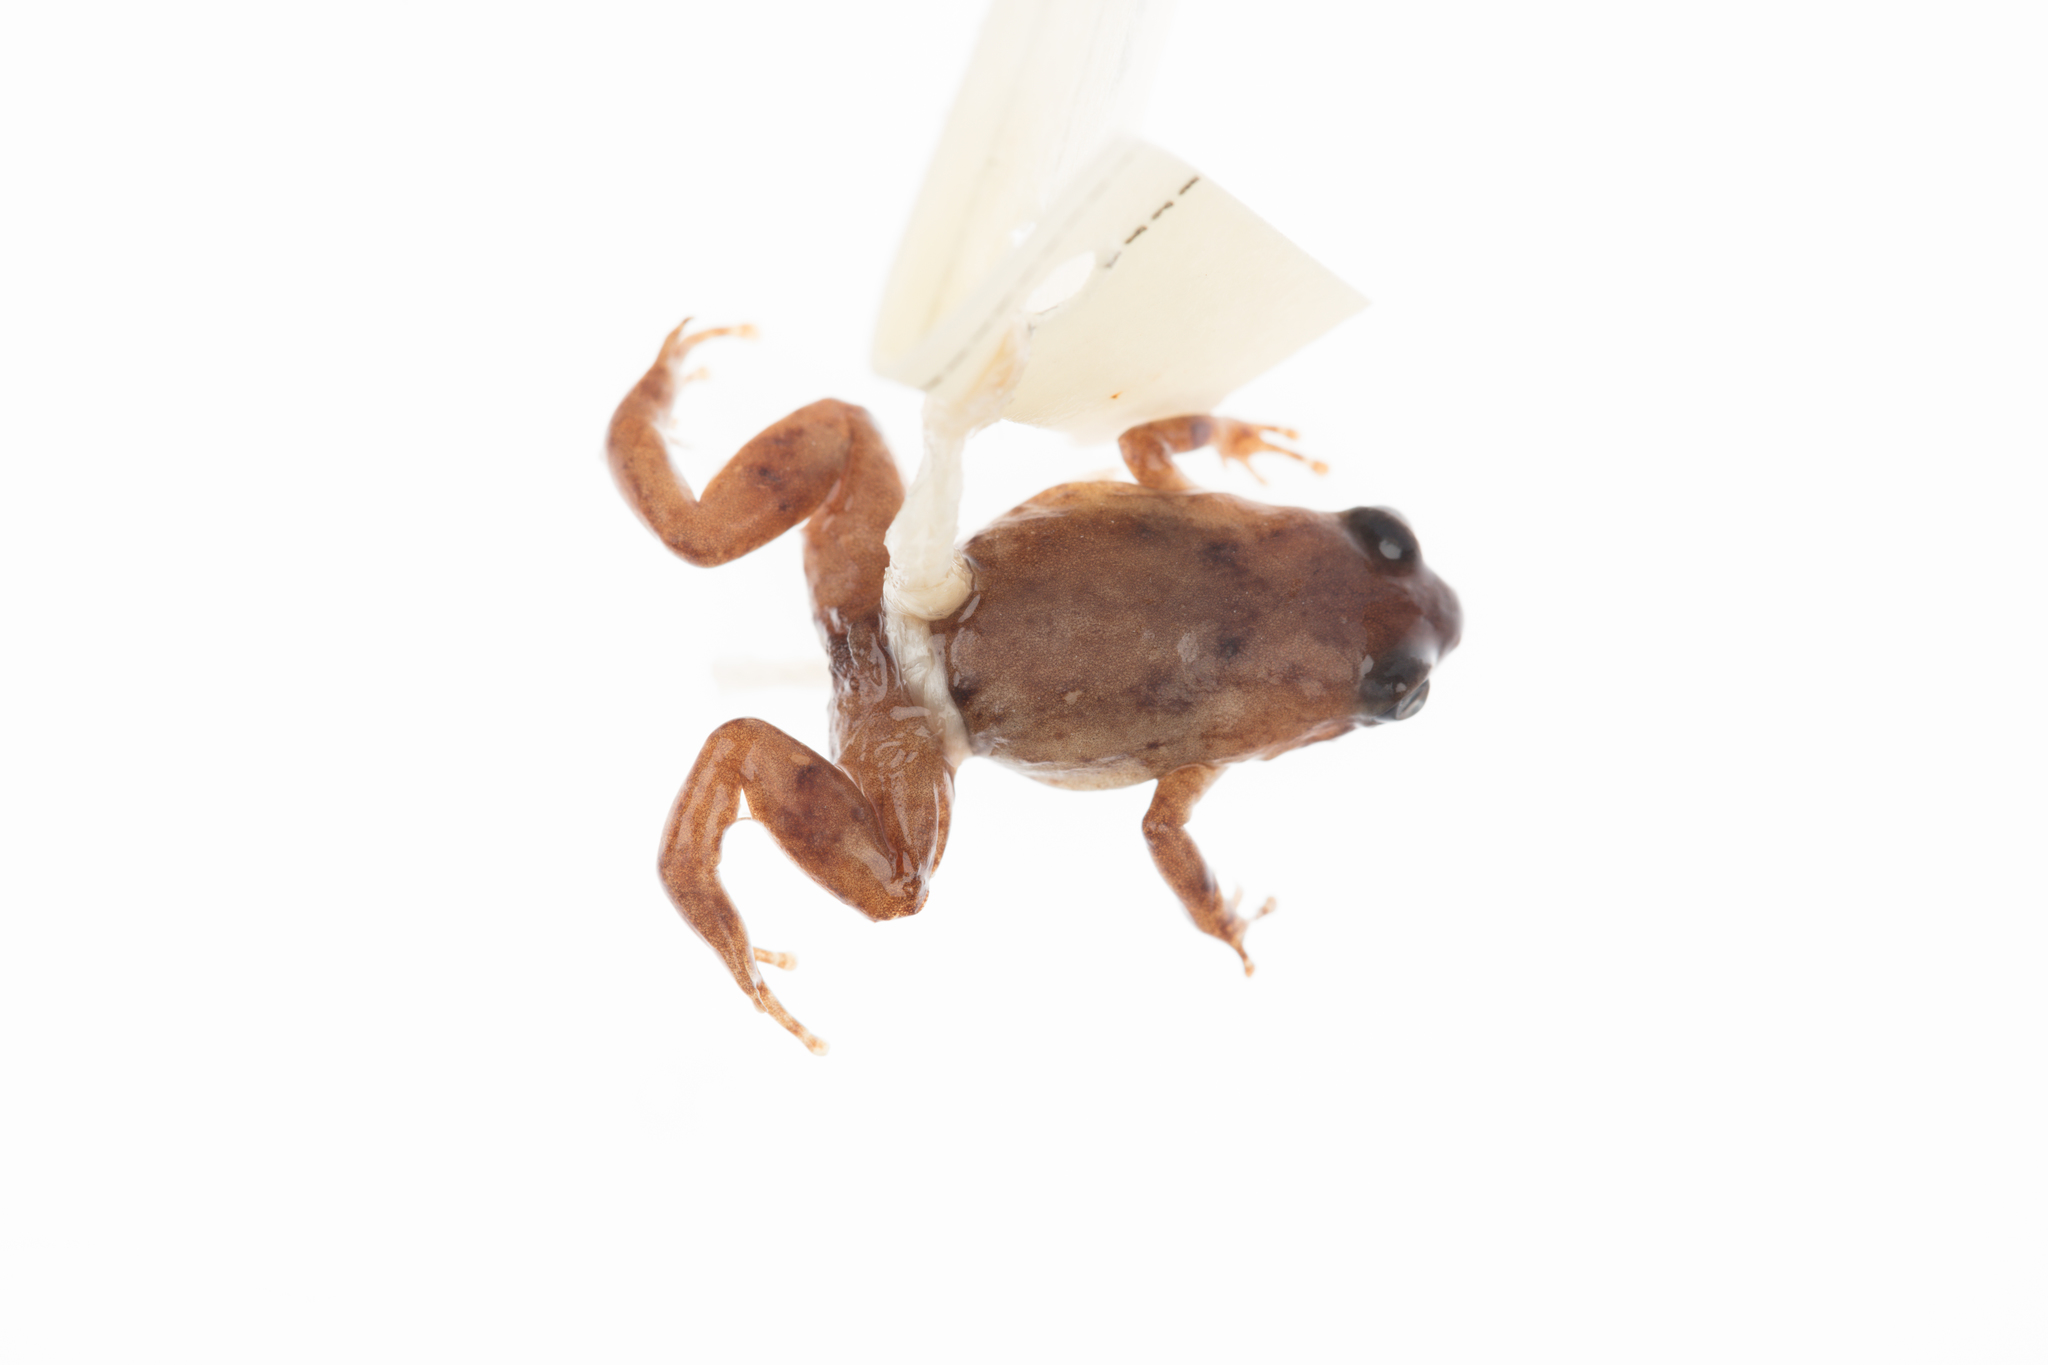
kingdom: Animalia
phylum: Chordata
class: Amphibia
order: Anura
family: Microhylidae
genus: Cophixalus
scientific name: Cophixalus hosmeri
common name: Clicking rainforest frog
